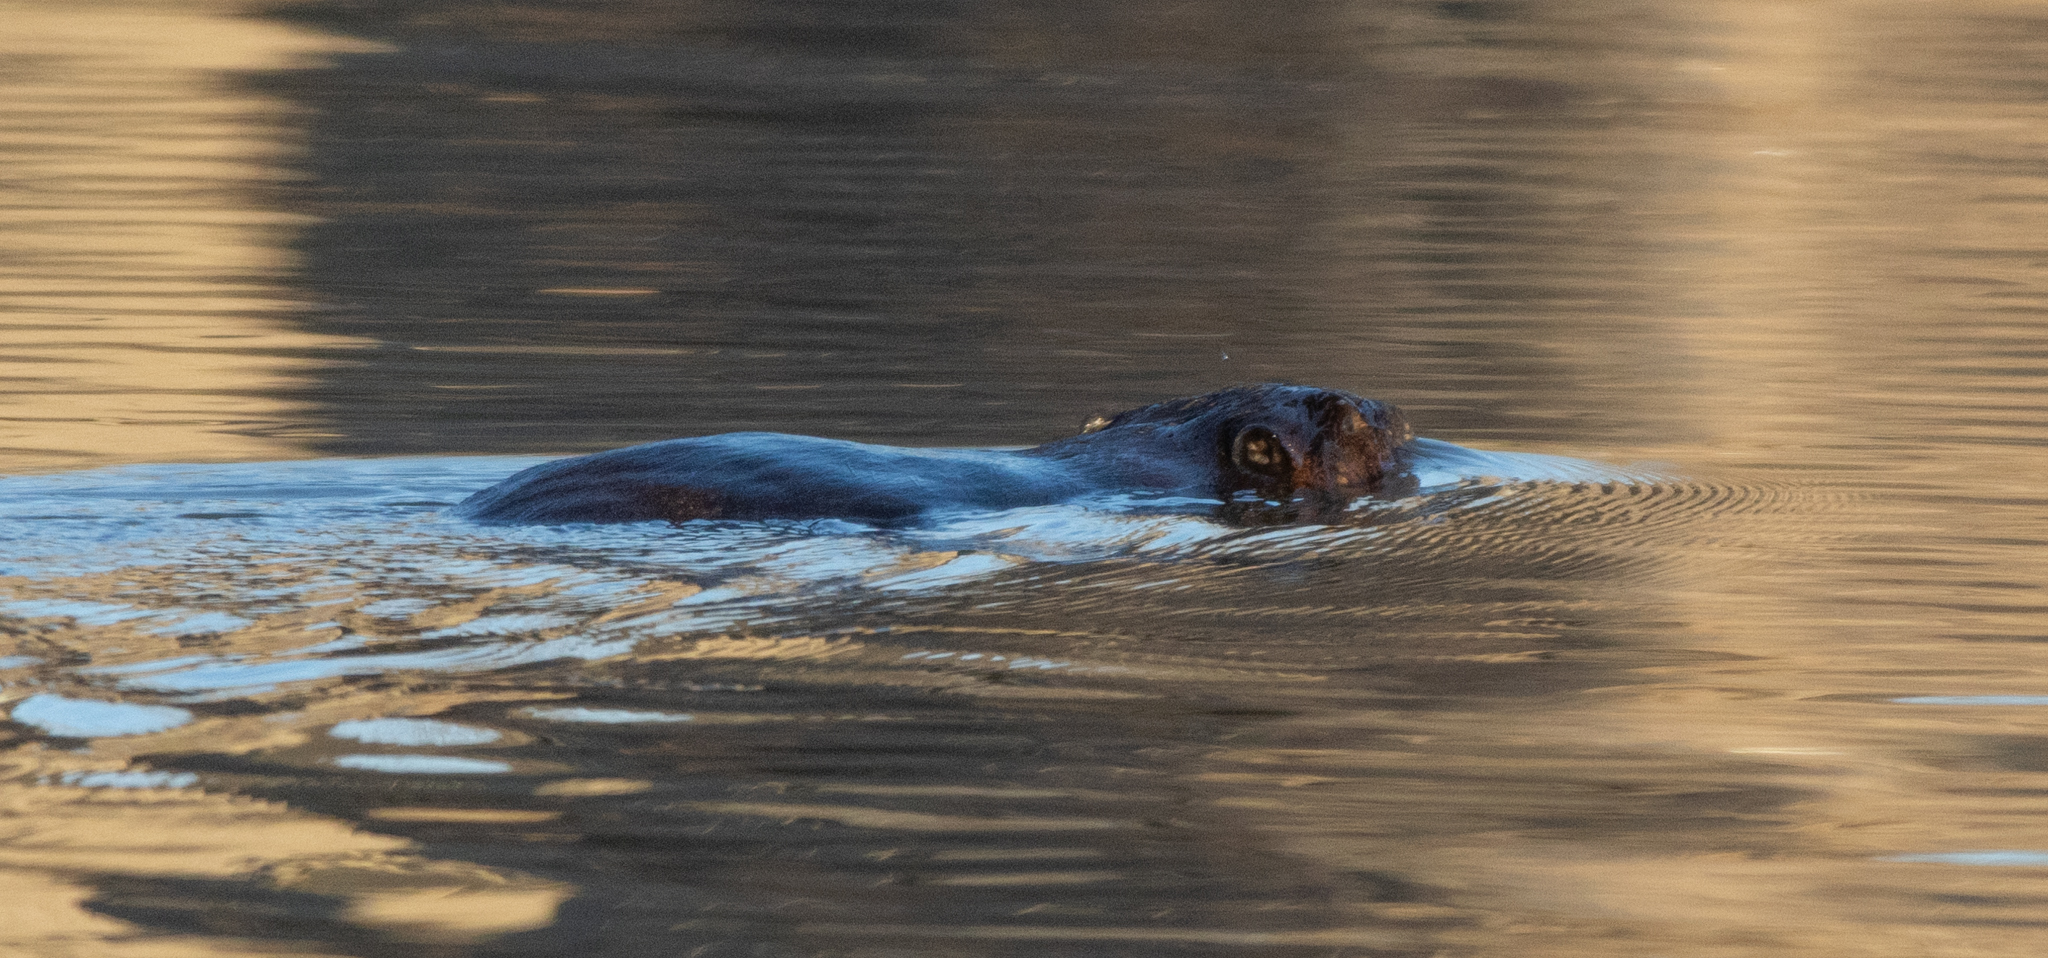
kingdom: Animalia
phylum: Chordata
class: Mammalia
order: Rodentia
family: Castoridae
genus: Castor
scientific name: Castor canadensis
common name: American beaver
